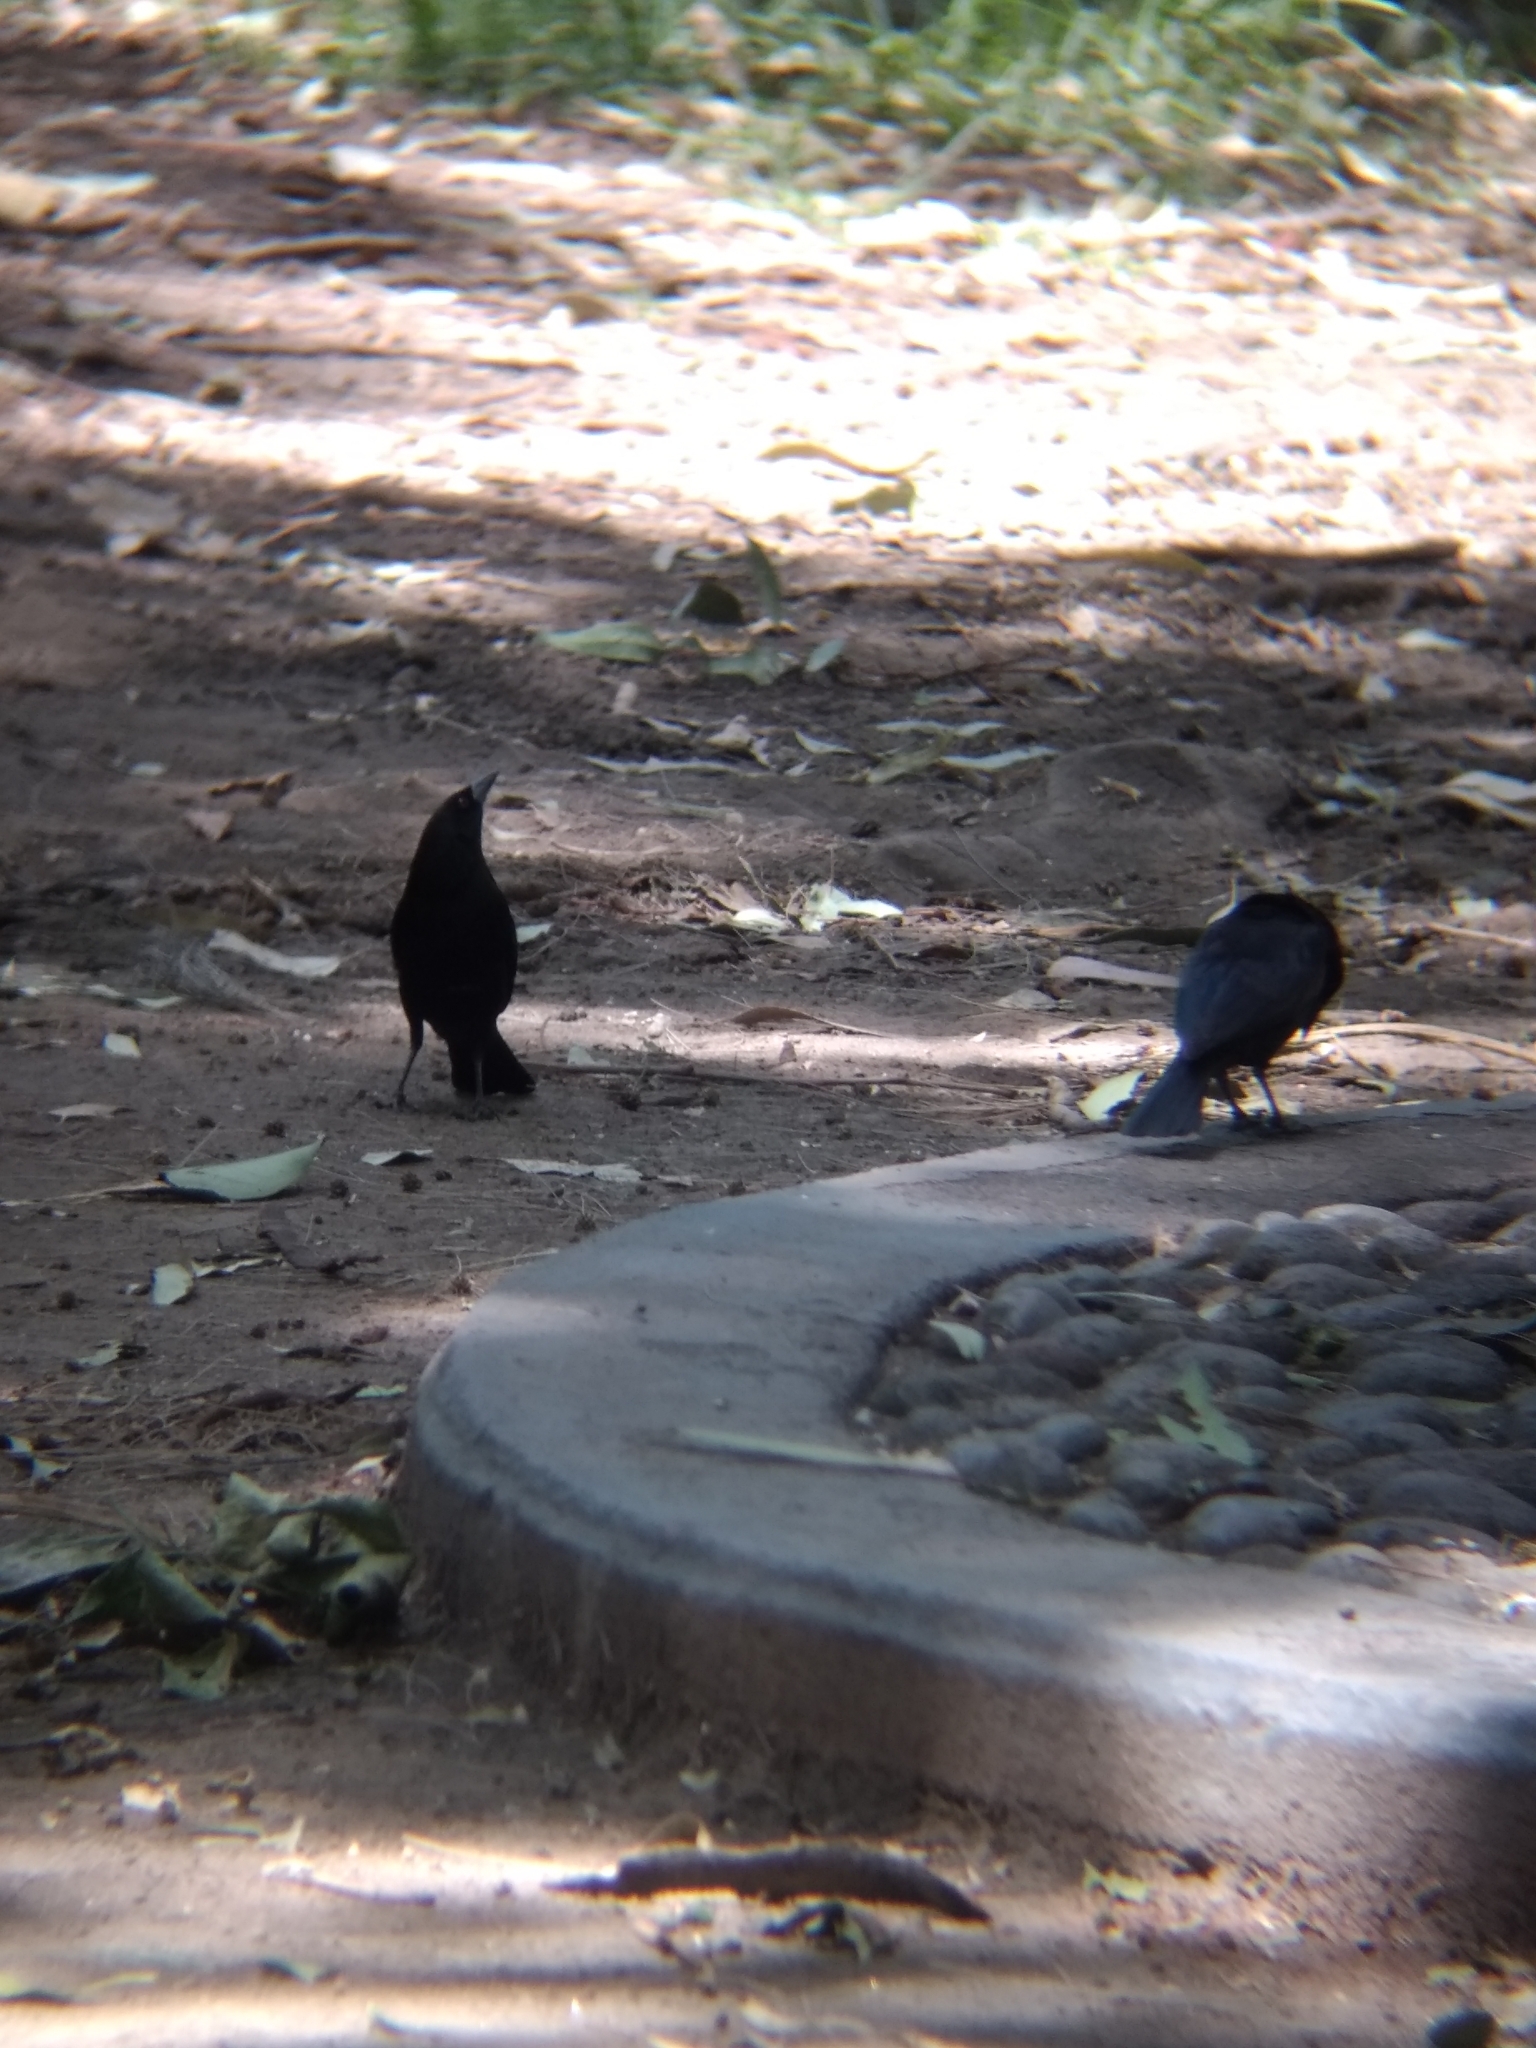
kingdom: Animalia
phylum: Chordata
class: Aves
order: Passeriformes
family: Icteridae
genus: Molothrus
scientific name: Molothrus aeneus
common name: Bronzed cowbird
